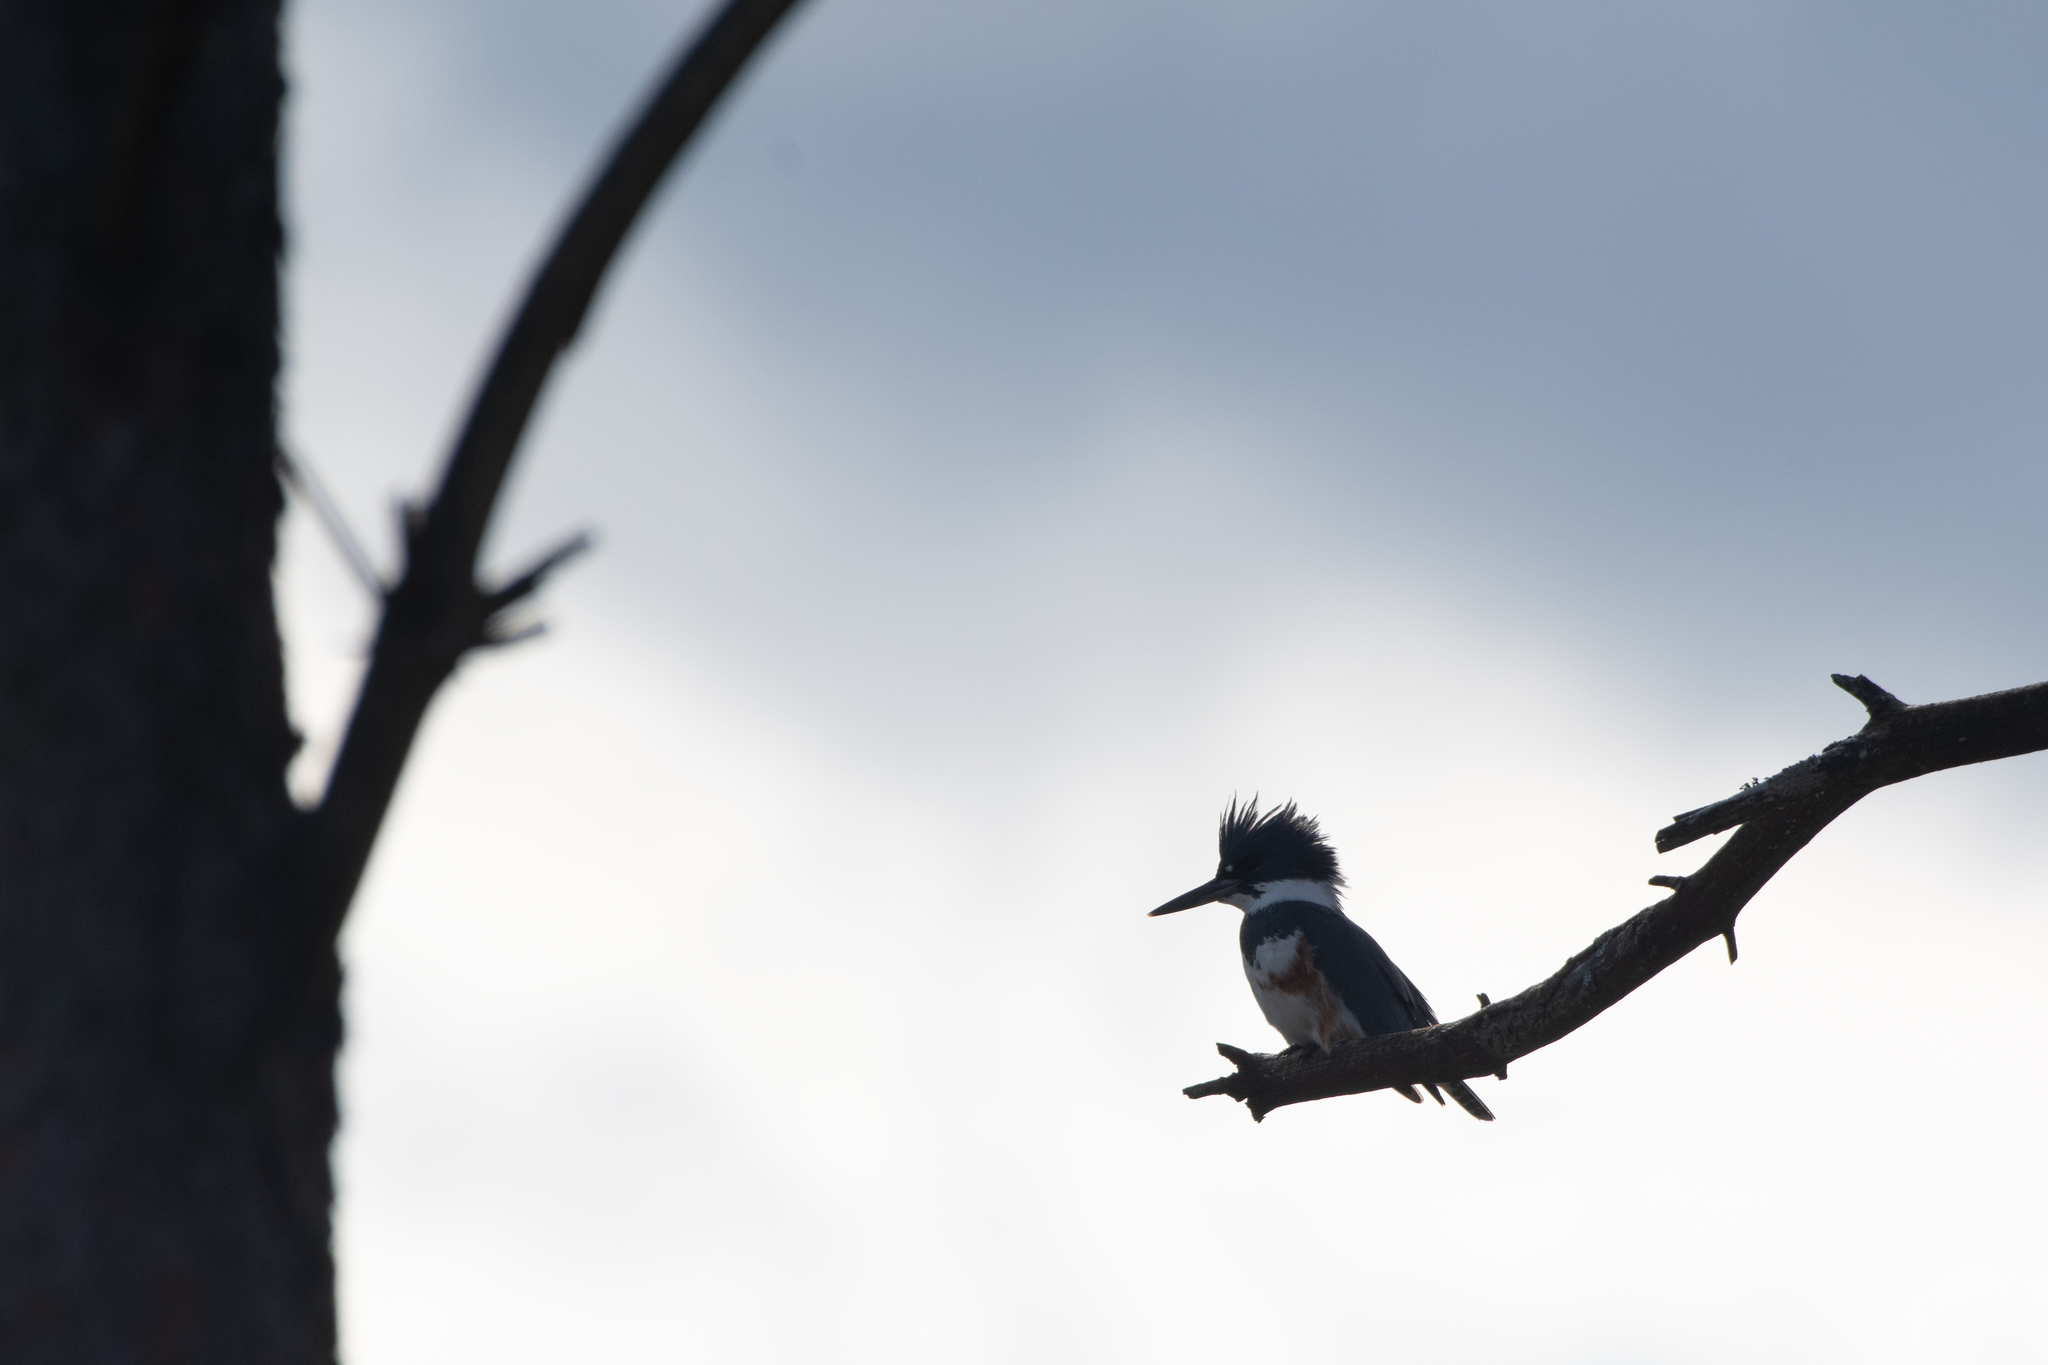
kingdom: Animalia
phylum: Chordata
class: Aves
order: Coraciiformes
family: Alcedinidae
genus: Megaceryle
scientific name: Megaceryle alcyon
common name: Belted kingfisher
